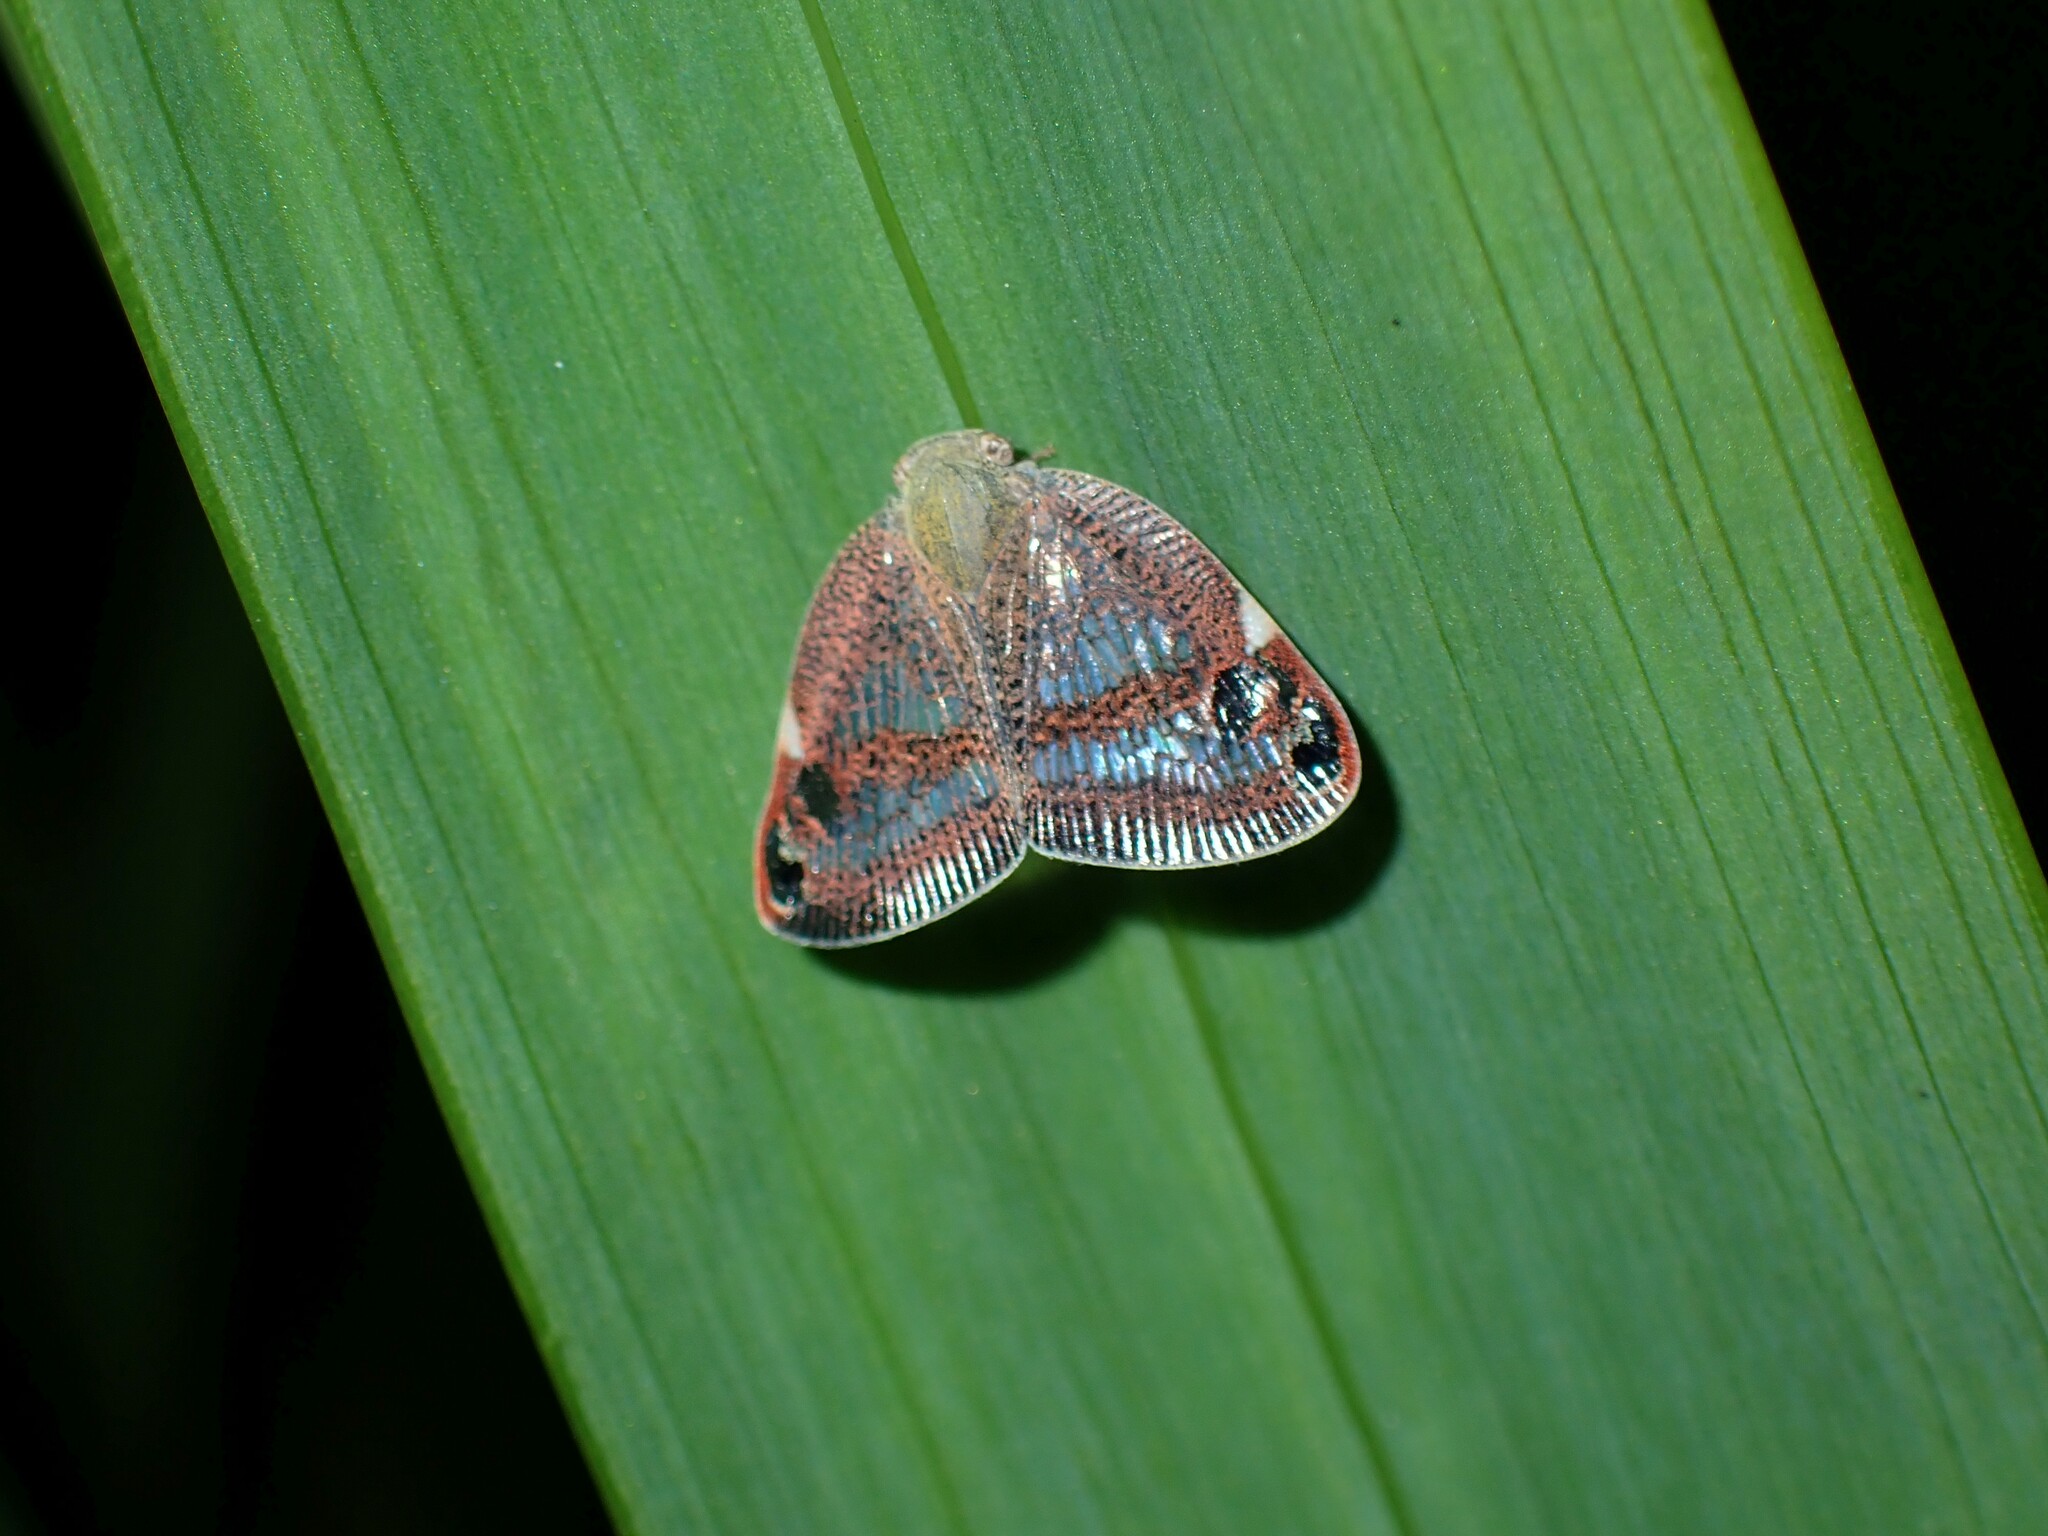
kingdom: Animalia
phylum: Arthropoda
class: Insecta
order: Hemiptera
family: Ricaniidae
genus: Parapiromis
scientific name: Parapiromis translucida
